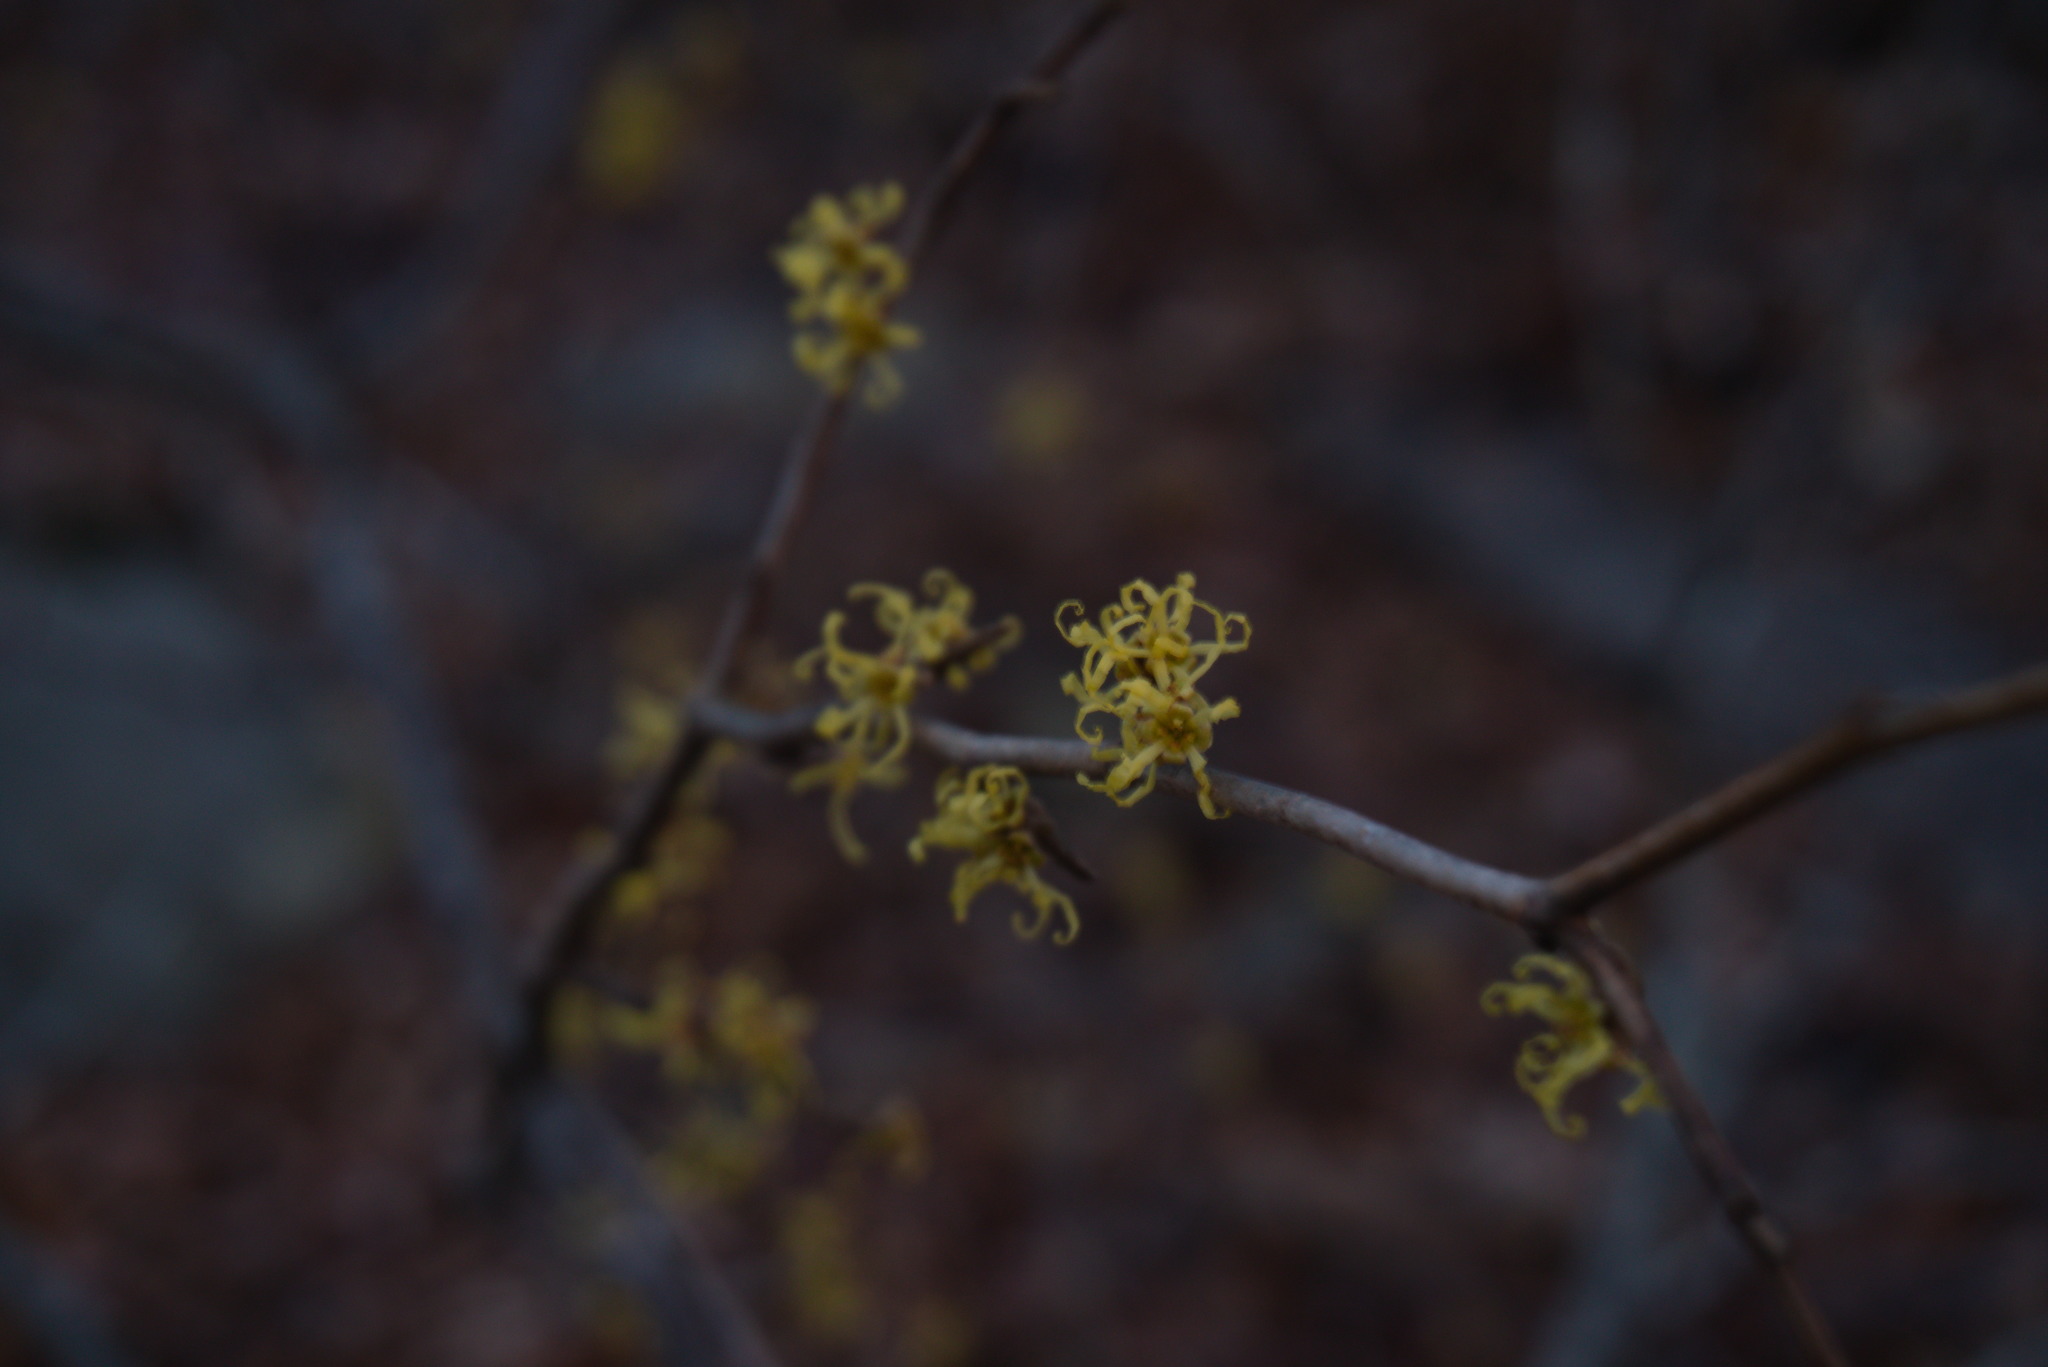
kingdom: Plantae
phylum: Tracheophyta
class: Magnoliopsida
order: Saxifragales
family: Hamamelidaceae
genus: Hamamelis
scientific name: Hamamelis virginiana
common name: Witch-hazel
